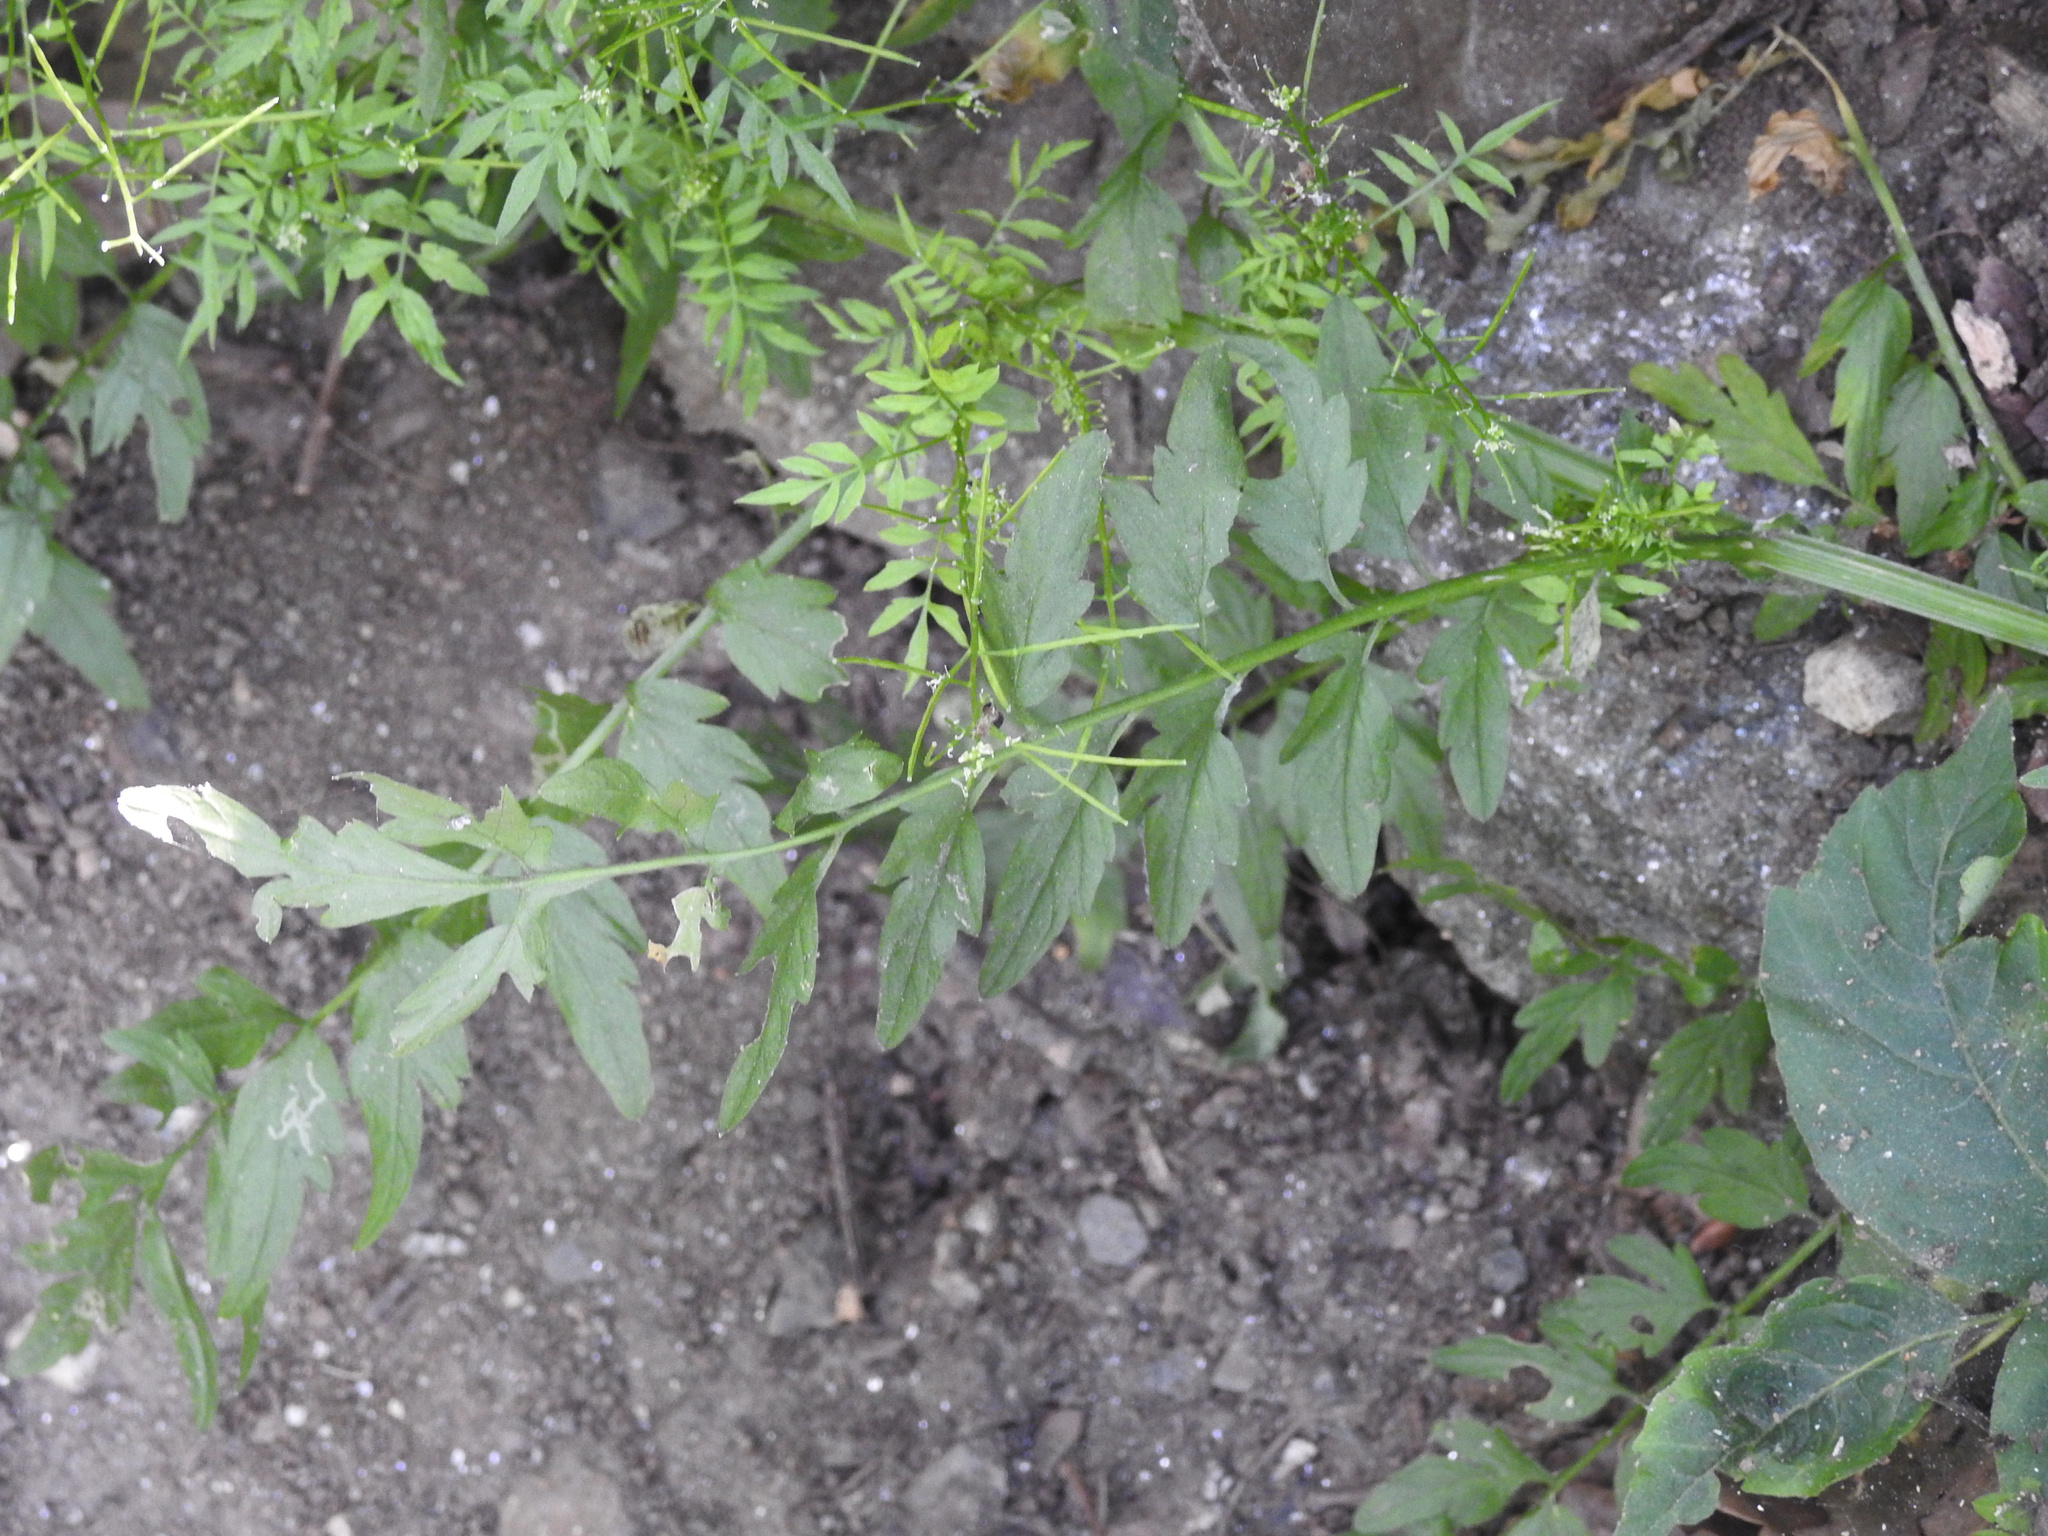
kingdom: Plantae
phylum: Tracheophyta
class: Magnoliopsida
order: Brassicales
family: Brassicaceae
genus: Cardamine
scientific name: Cardamine impatiens
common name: Narrow-leaved bitter-cress
